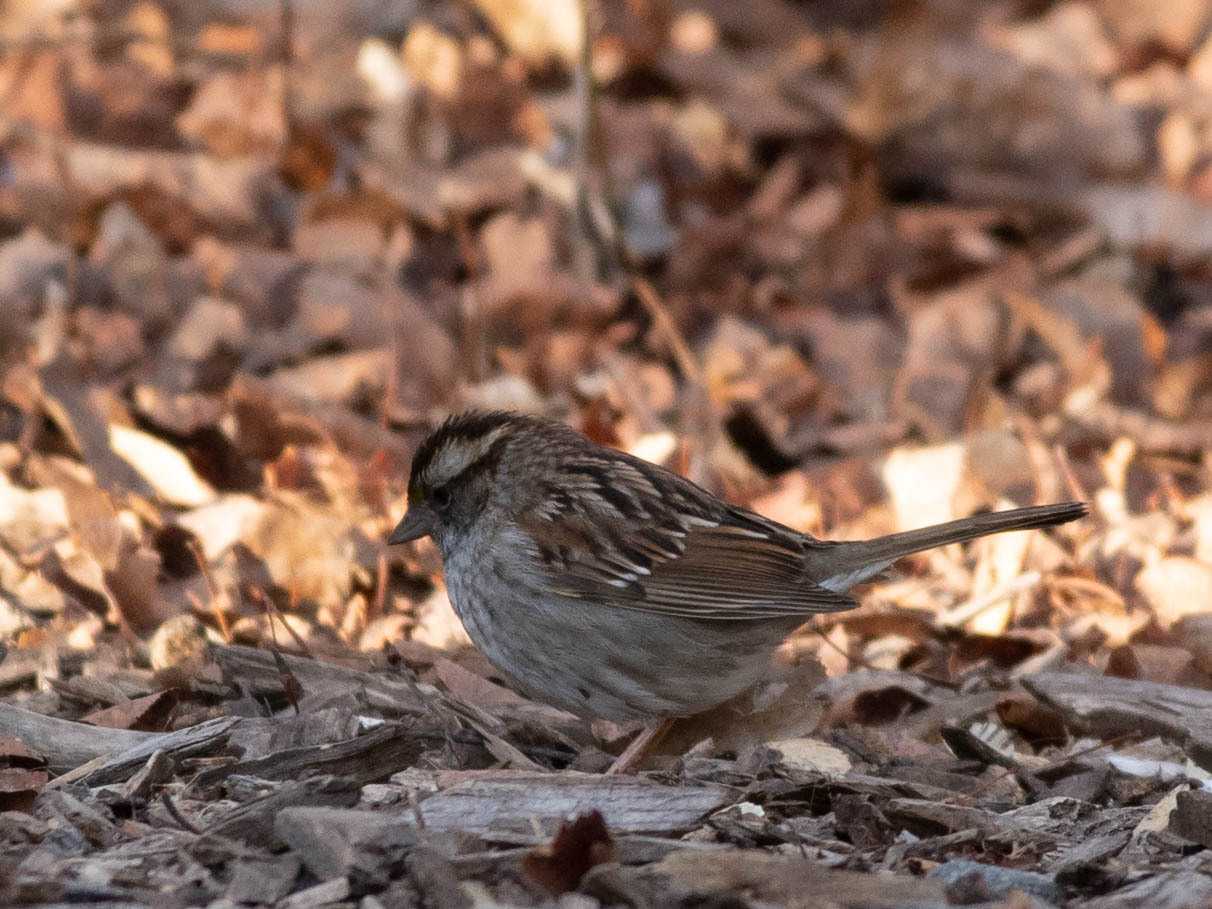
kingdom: Animalia
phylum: Chordata
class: Aves
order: Passeriformes
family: Passerellidae
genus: Zonotrichia
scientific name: Zonotrichia albicollis
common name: White-throated sparrow
